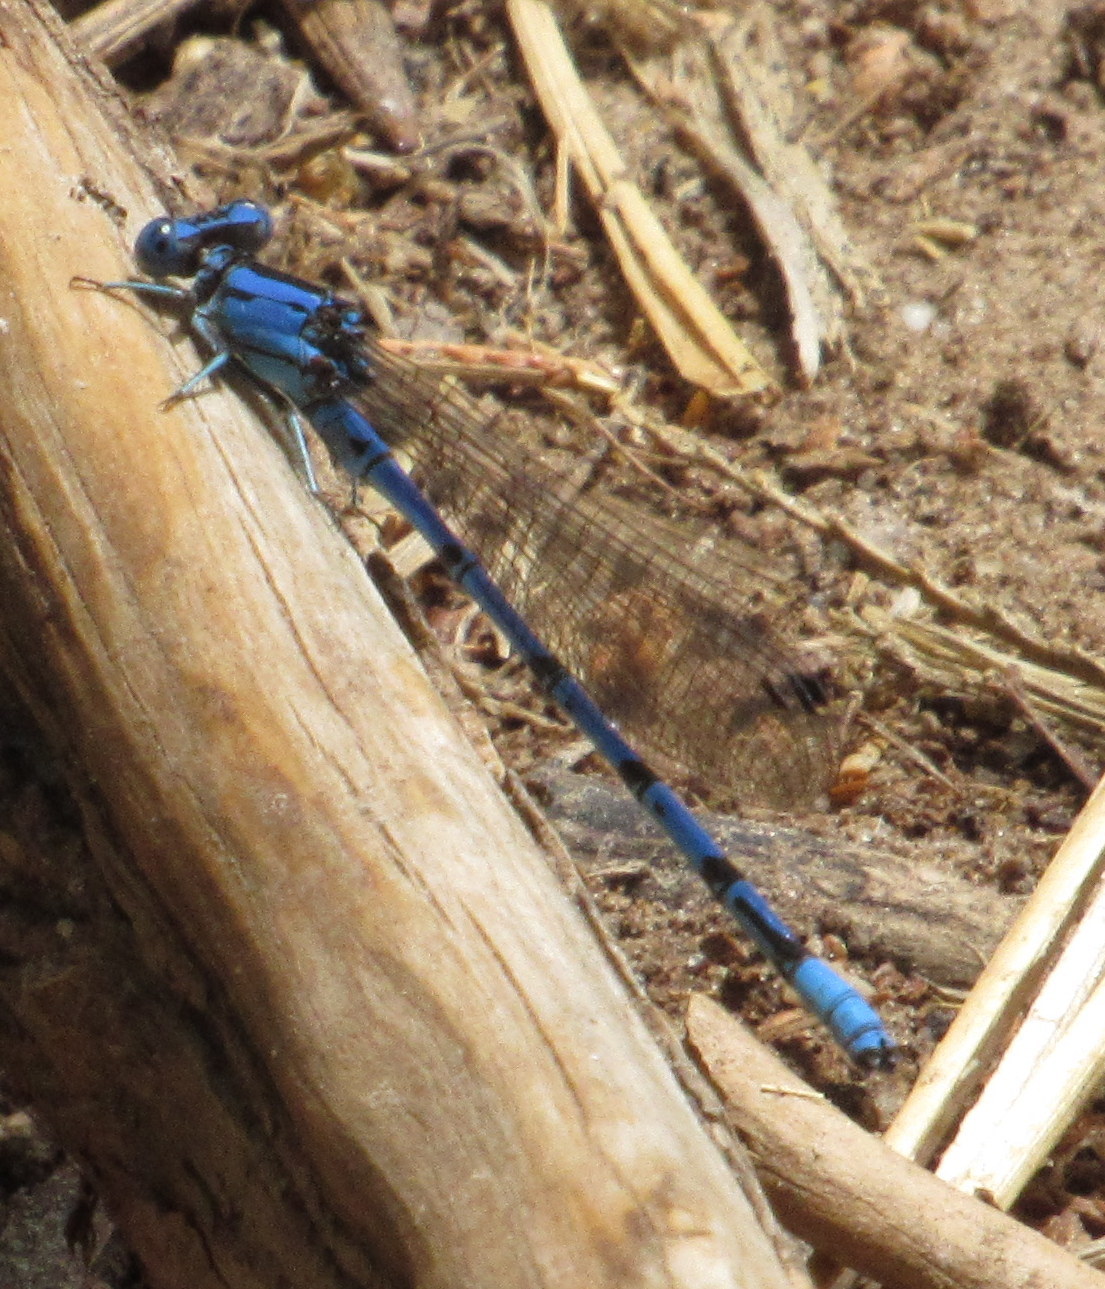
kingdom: Animalia
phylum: Arthropoda
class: Insecta
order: Odonata
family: Coenagrionidae
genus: Argia
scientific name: Argia funebris
